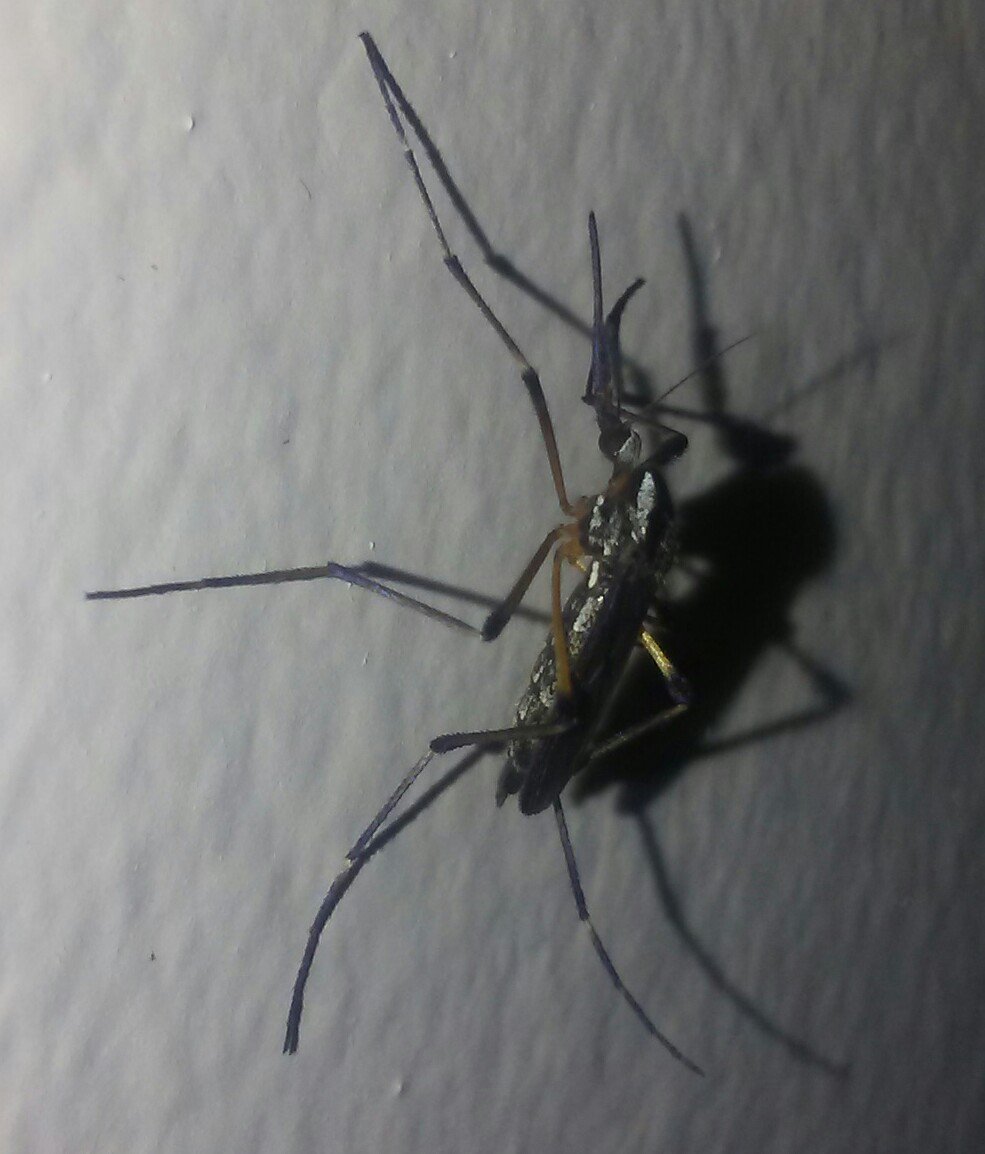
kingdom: Animalia
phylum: Arthropoda
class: Insecta
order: Diptera
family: Culicidae
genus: Psorophora
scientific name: Psorophora howardii
